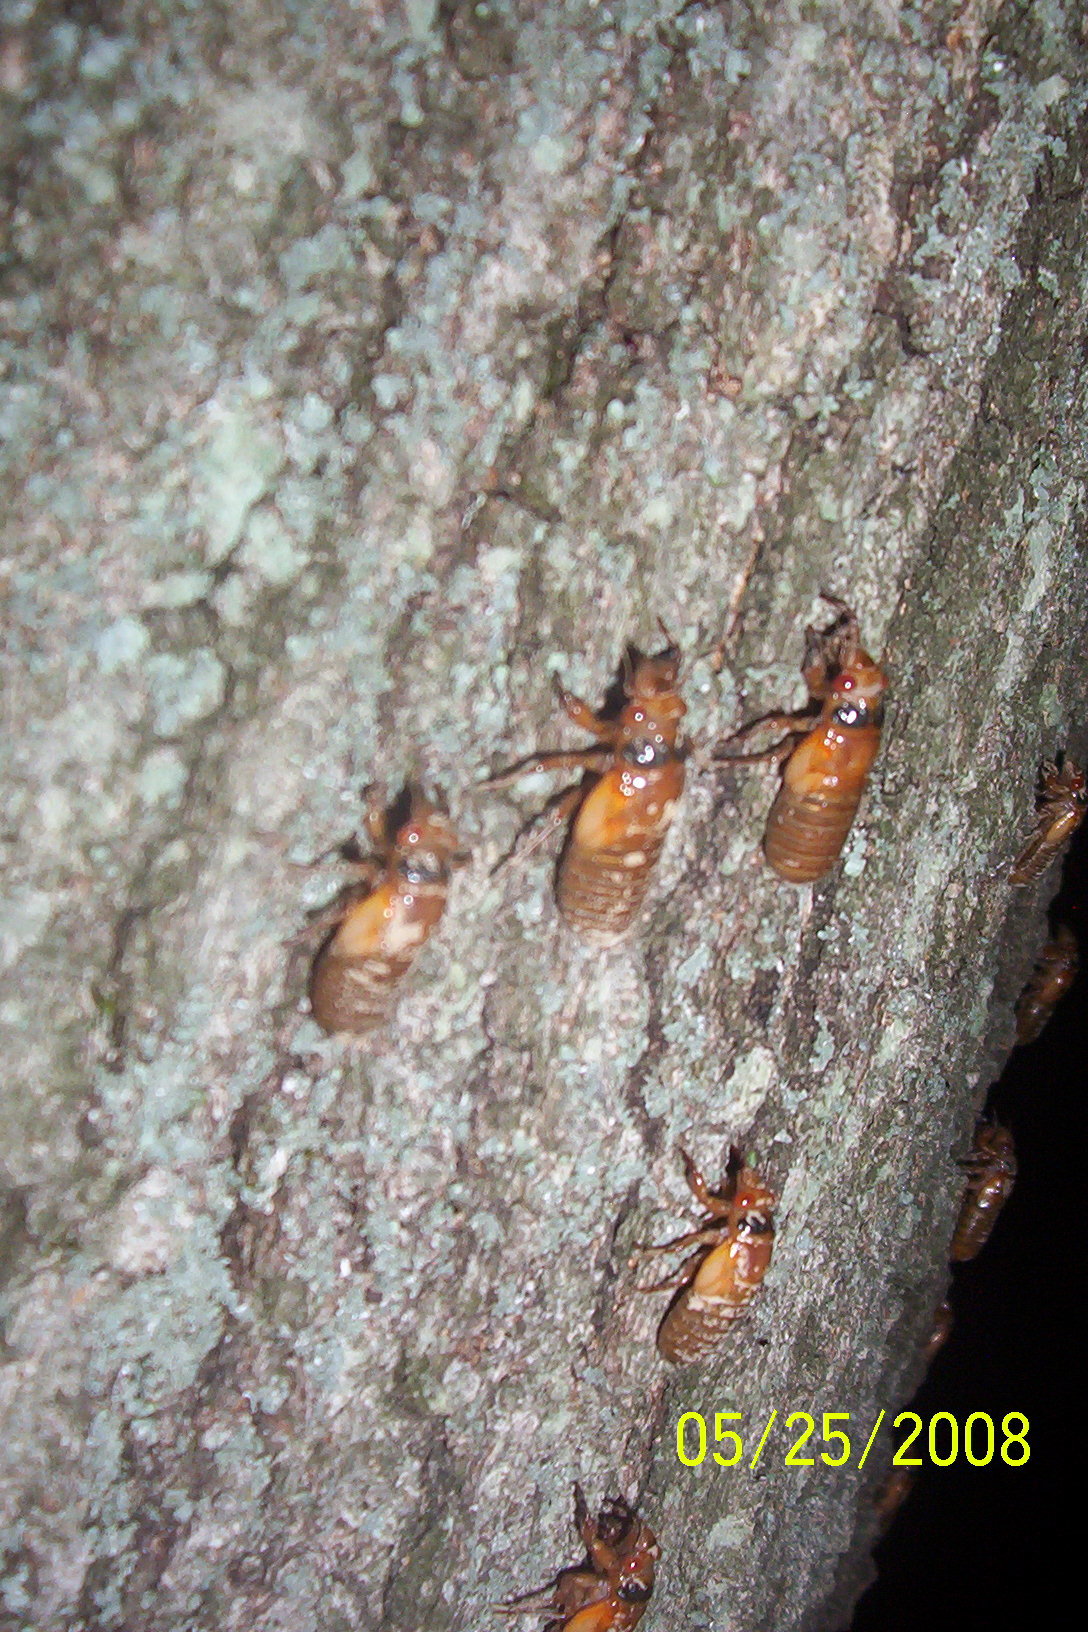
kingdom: Animalia
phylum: Arthropoda
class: Insecta
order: Hemiptera
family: Cicadidae
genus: Magicicada
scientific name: Magicicada
